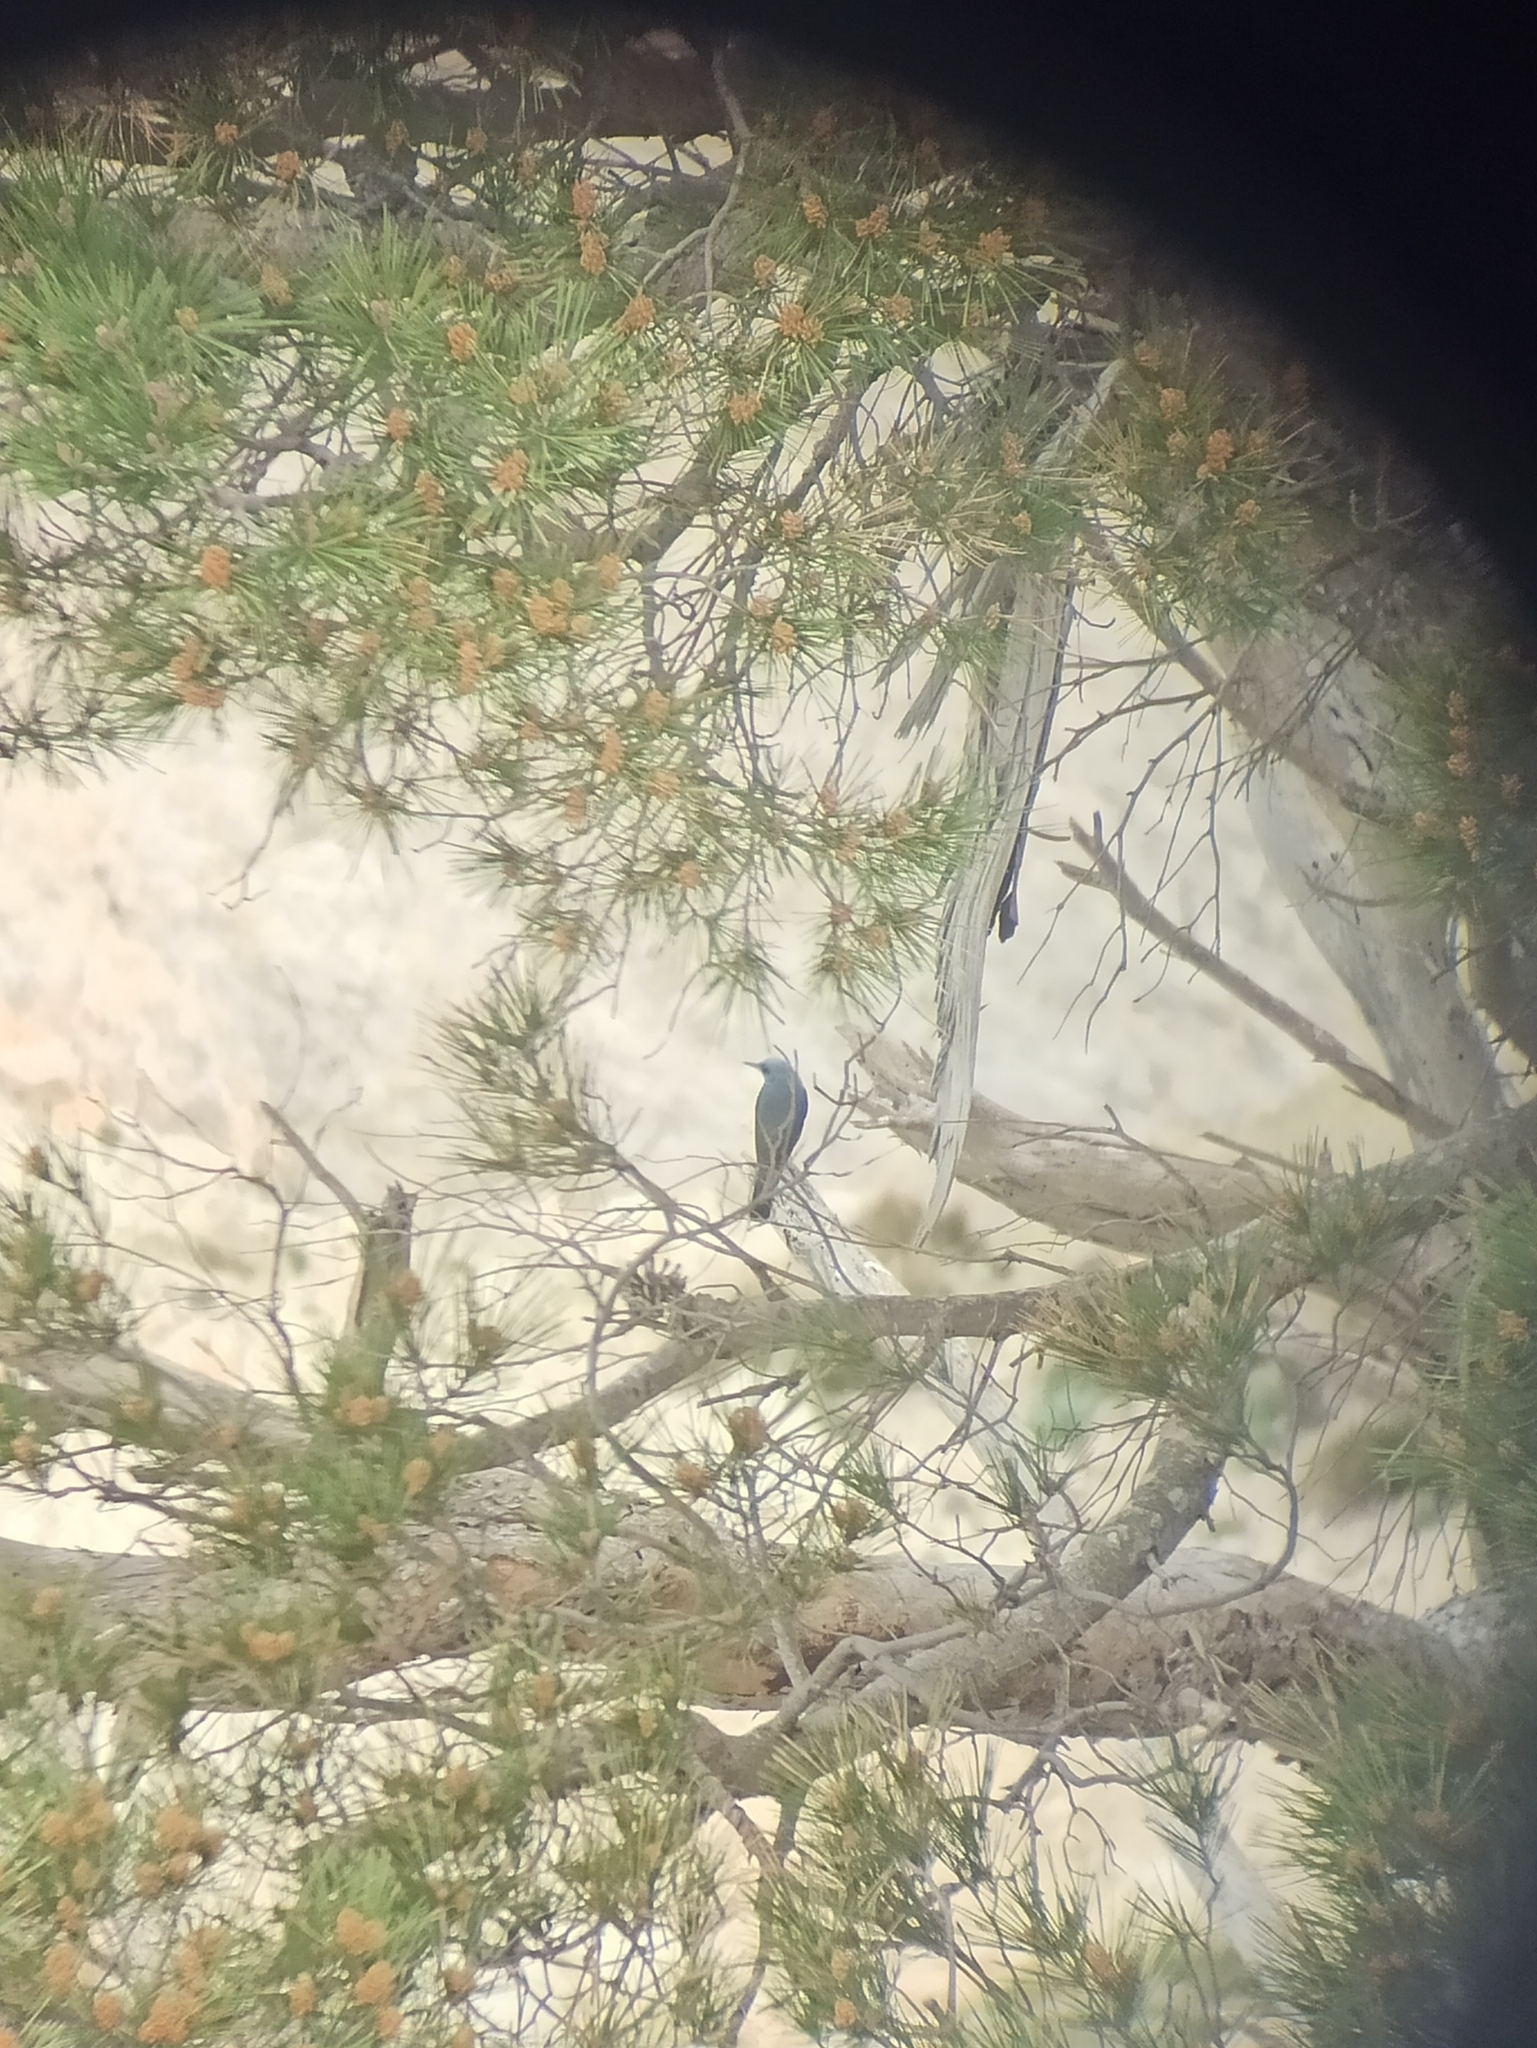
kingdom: Animalia
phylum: Chordata
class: Aves
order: Passeriformes
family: Muscicapidae
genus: Monticola
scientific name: Monticola solitarius
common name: Blue rock thrush
